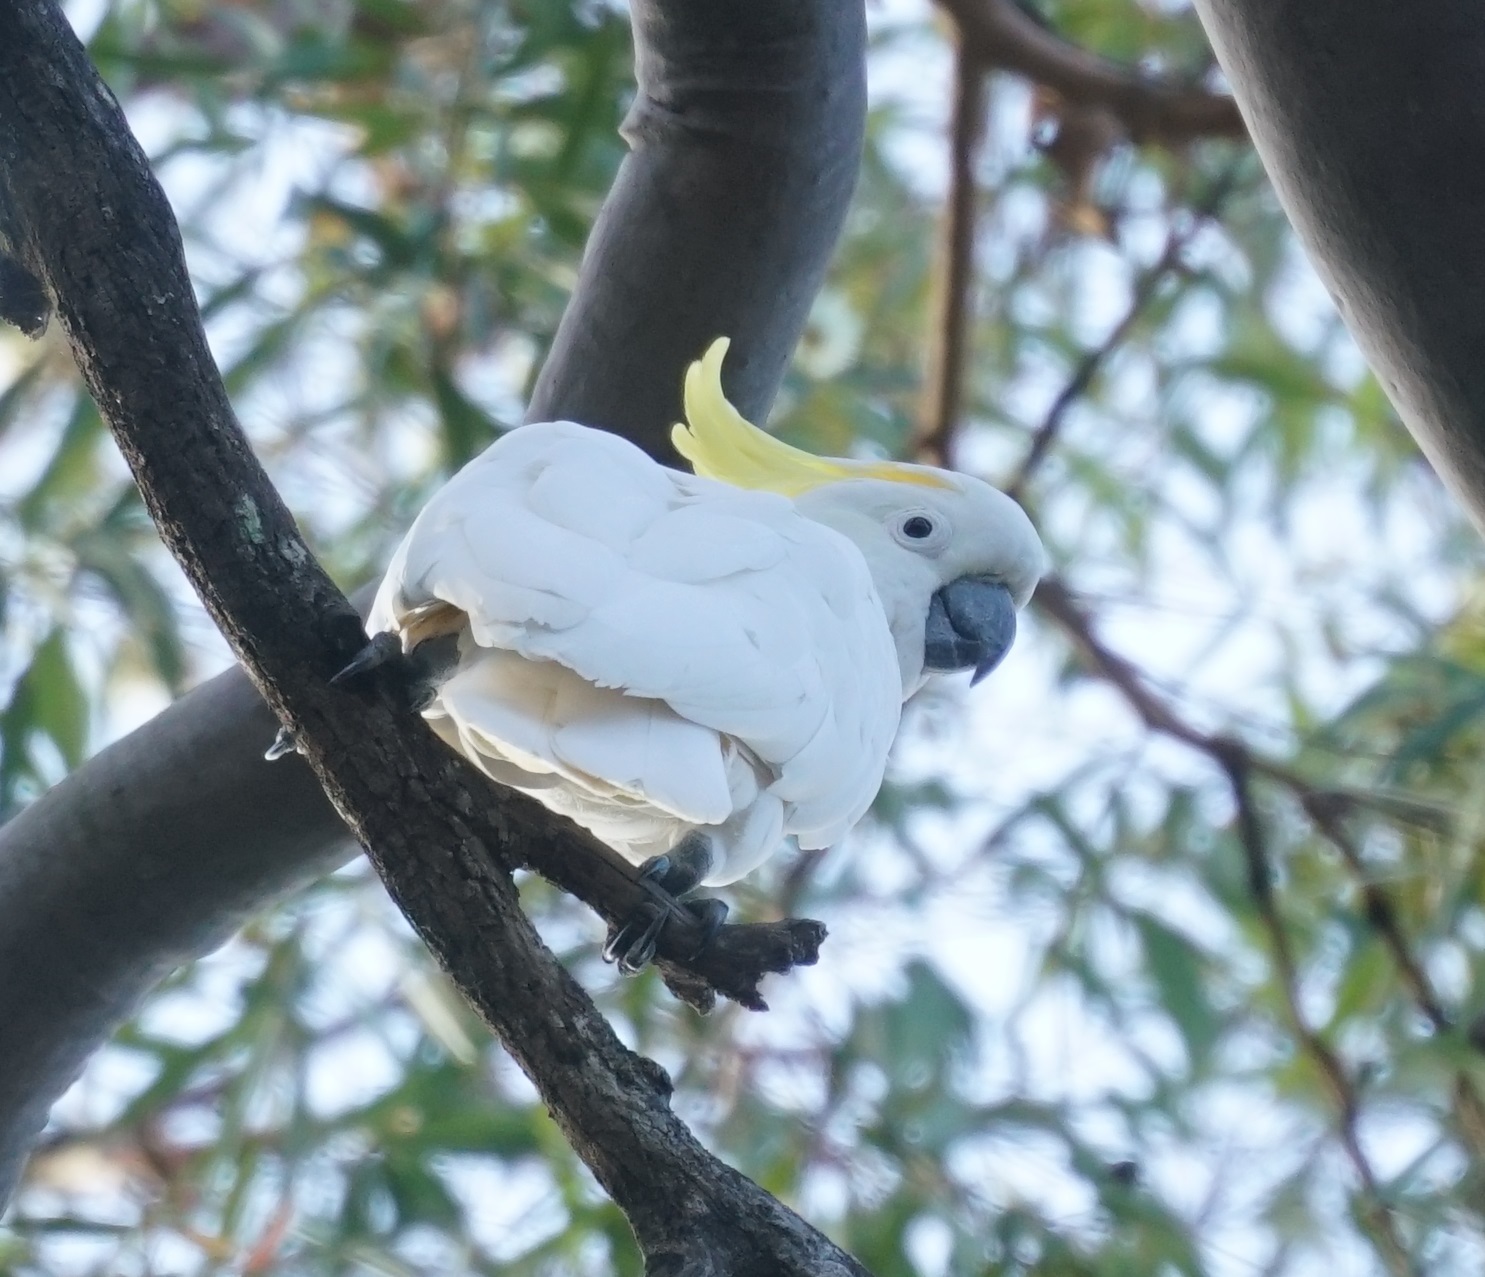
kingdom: Animalia
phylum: Chordata
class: Aves
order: Psittaciformes
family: Psittacidae
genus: Cacatua
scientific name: Cacatua galerita
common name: Sulphur-crested cockatoo
